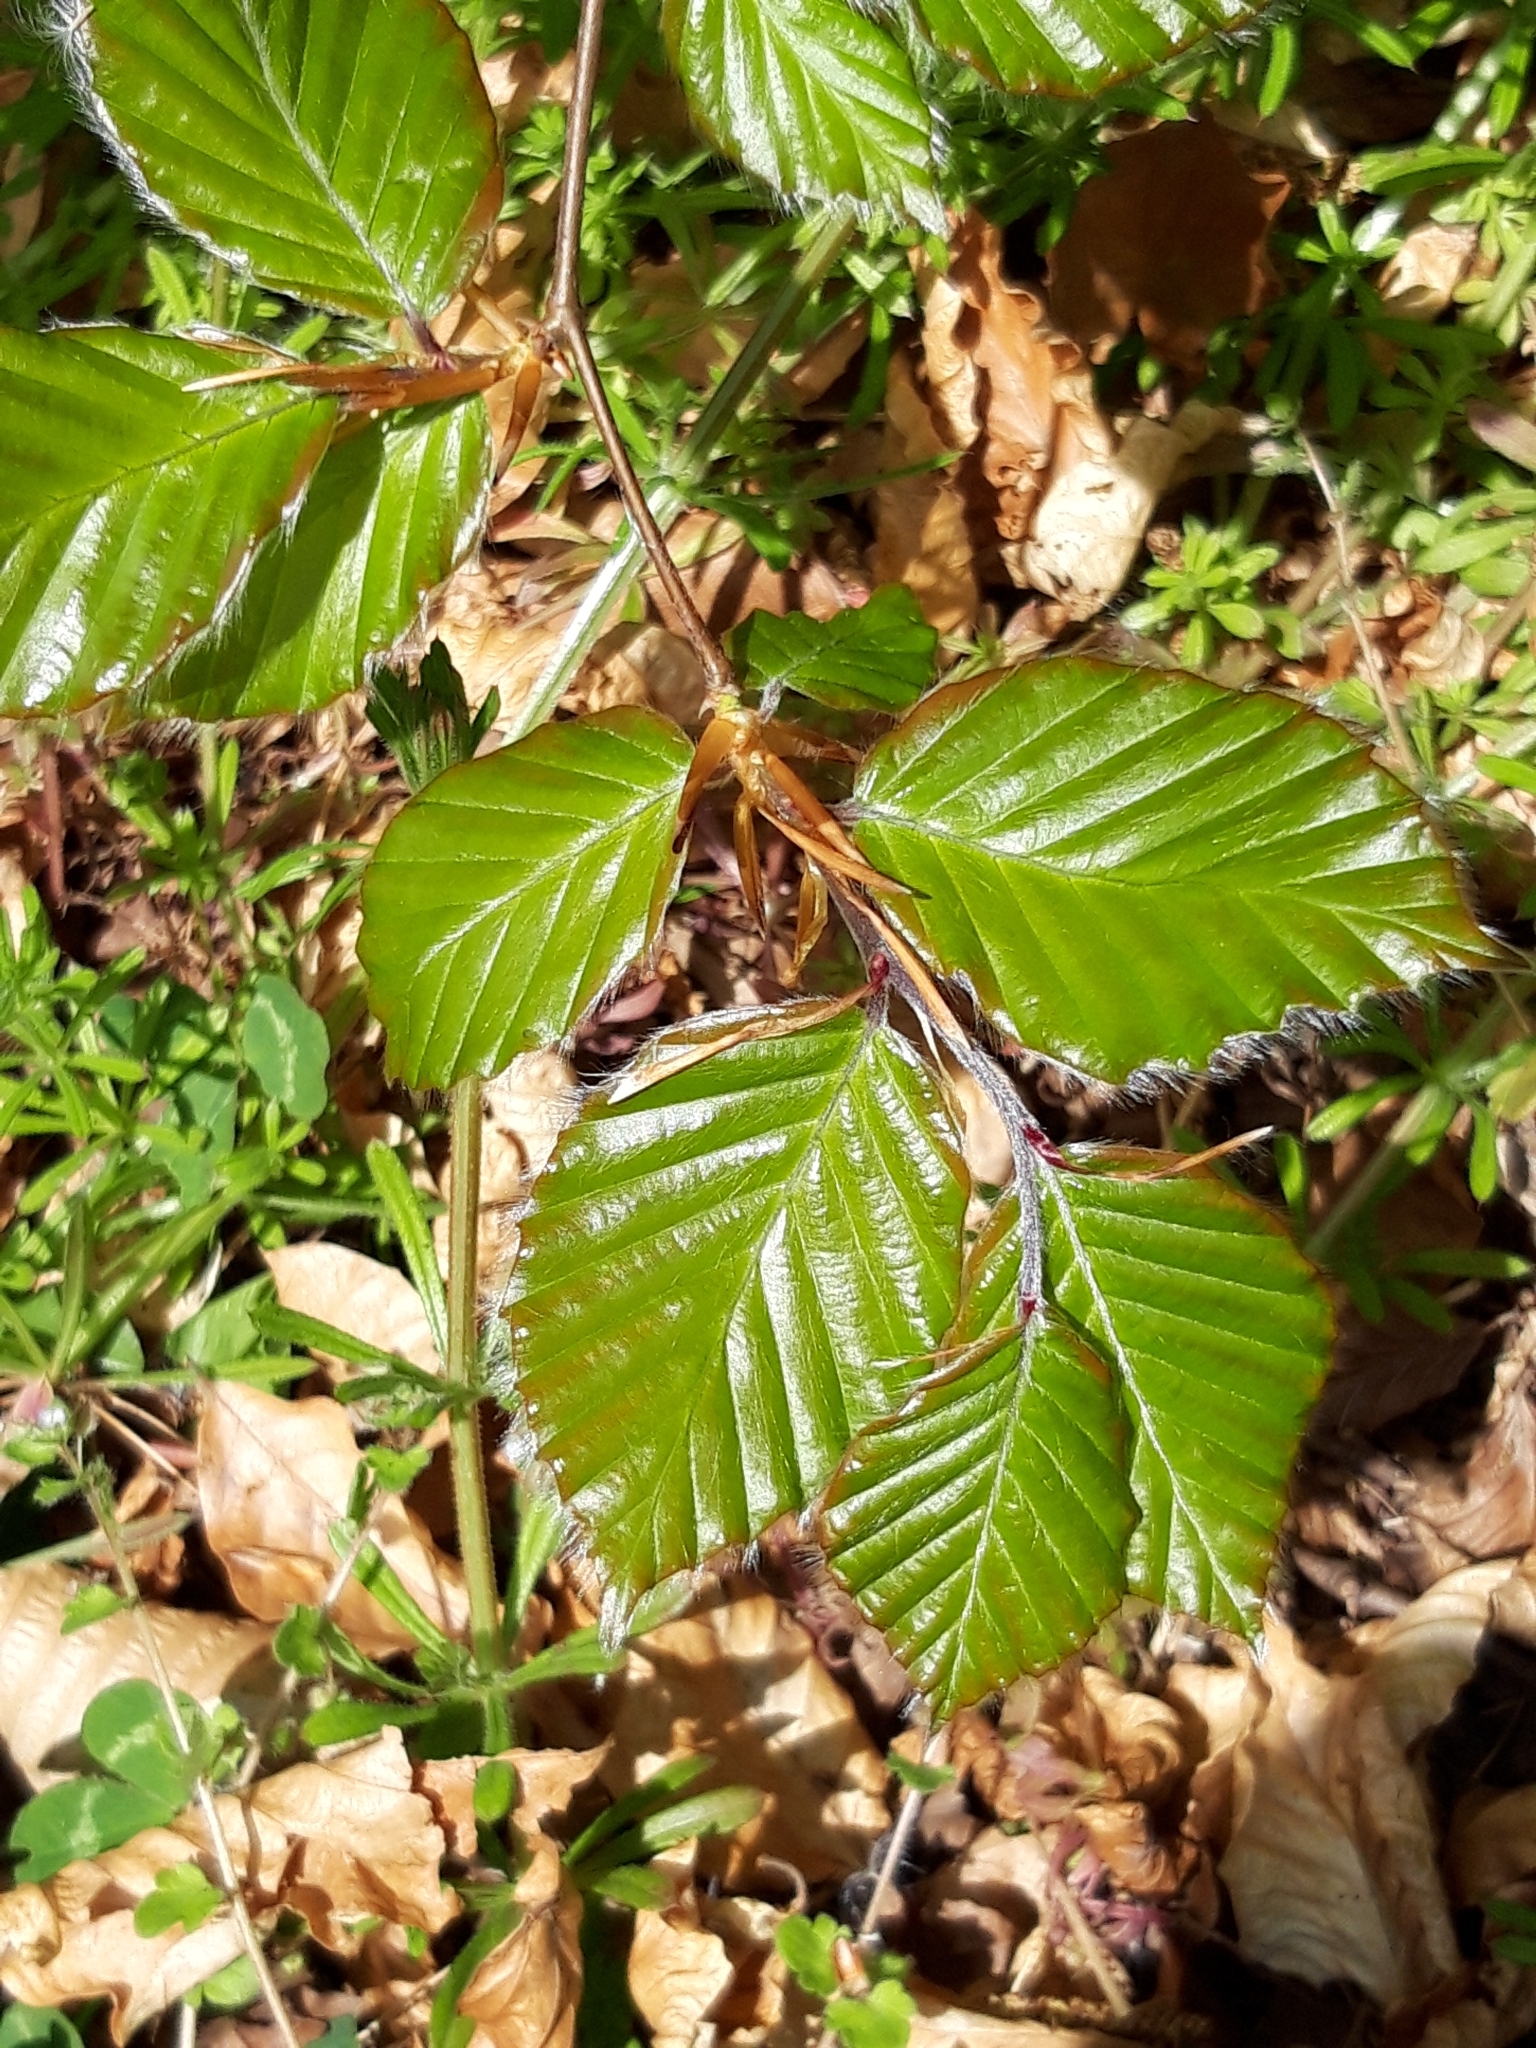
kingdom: Plantae
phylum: Tracheophyta
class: Magnoliopsida
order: Fagales
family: Fagaceae
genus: Fagus
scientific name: Fagus sylvatica
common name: Beech
